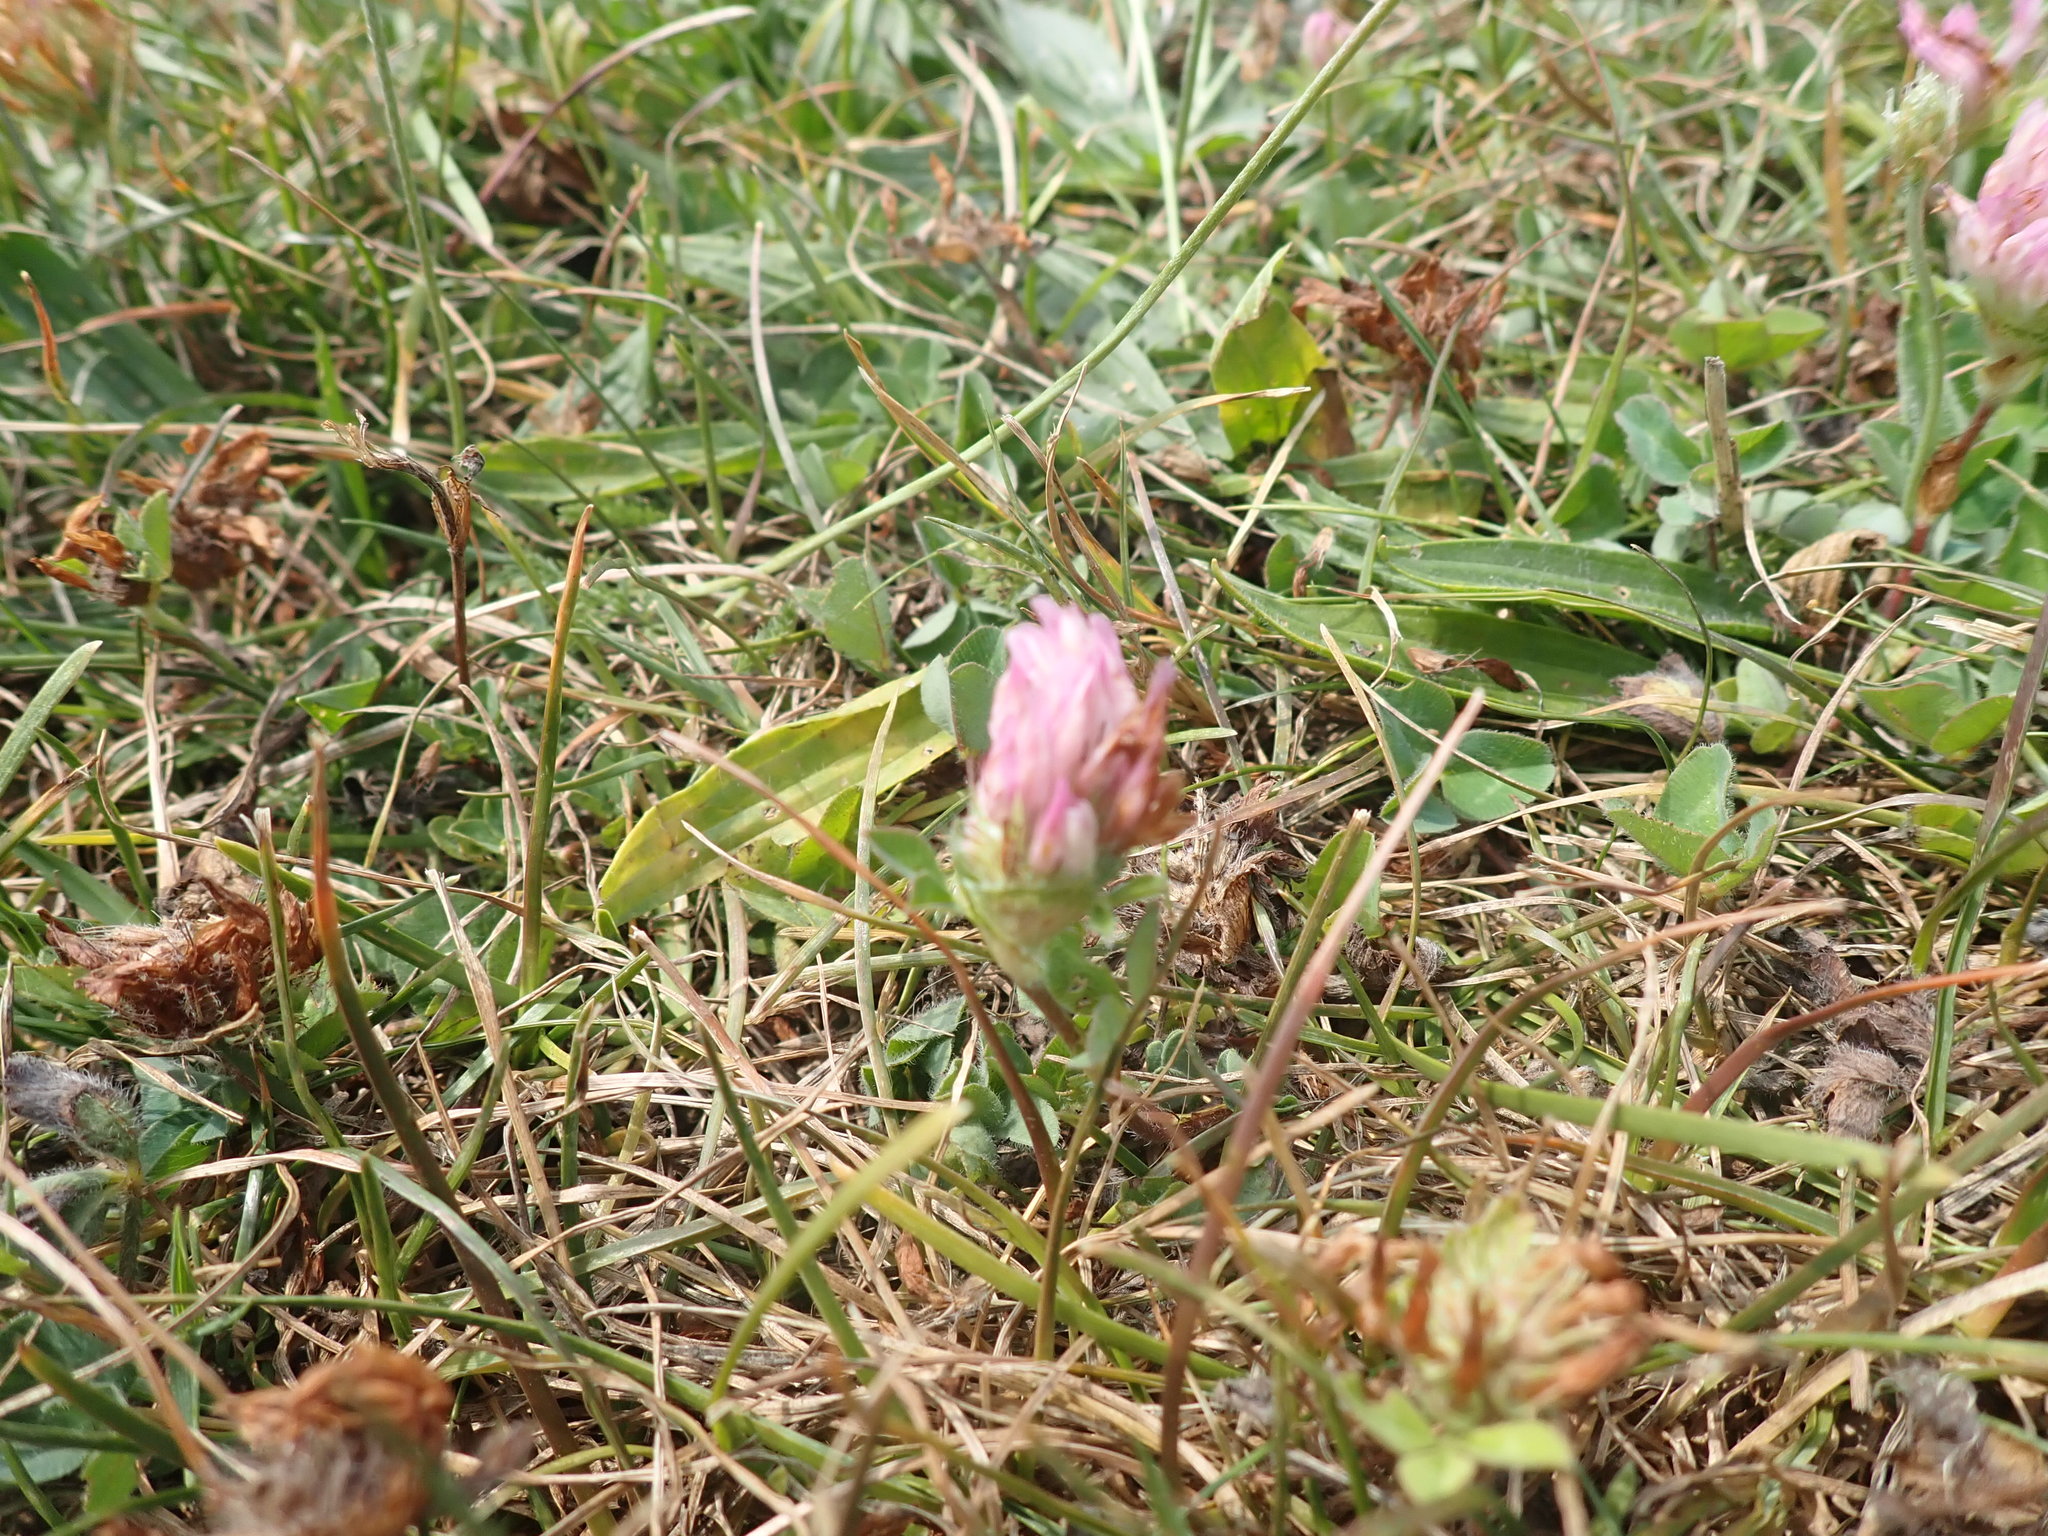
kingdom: Plantae
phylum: Tracheophyta
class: Magnoliopsida
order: Fabales
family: Fabaceae
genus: Trifolium
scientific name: Trifolium pratense
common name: Red clover
